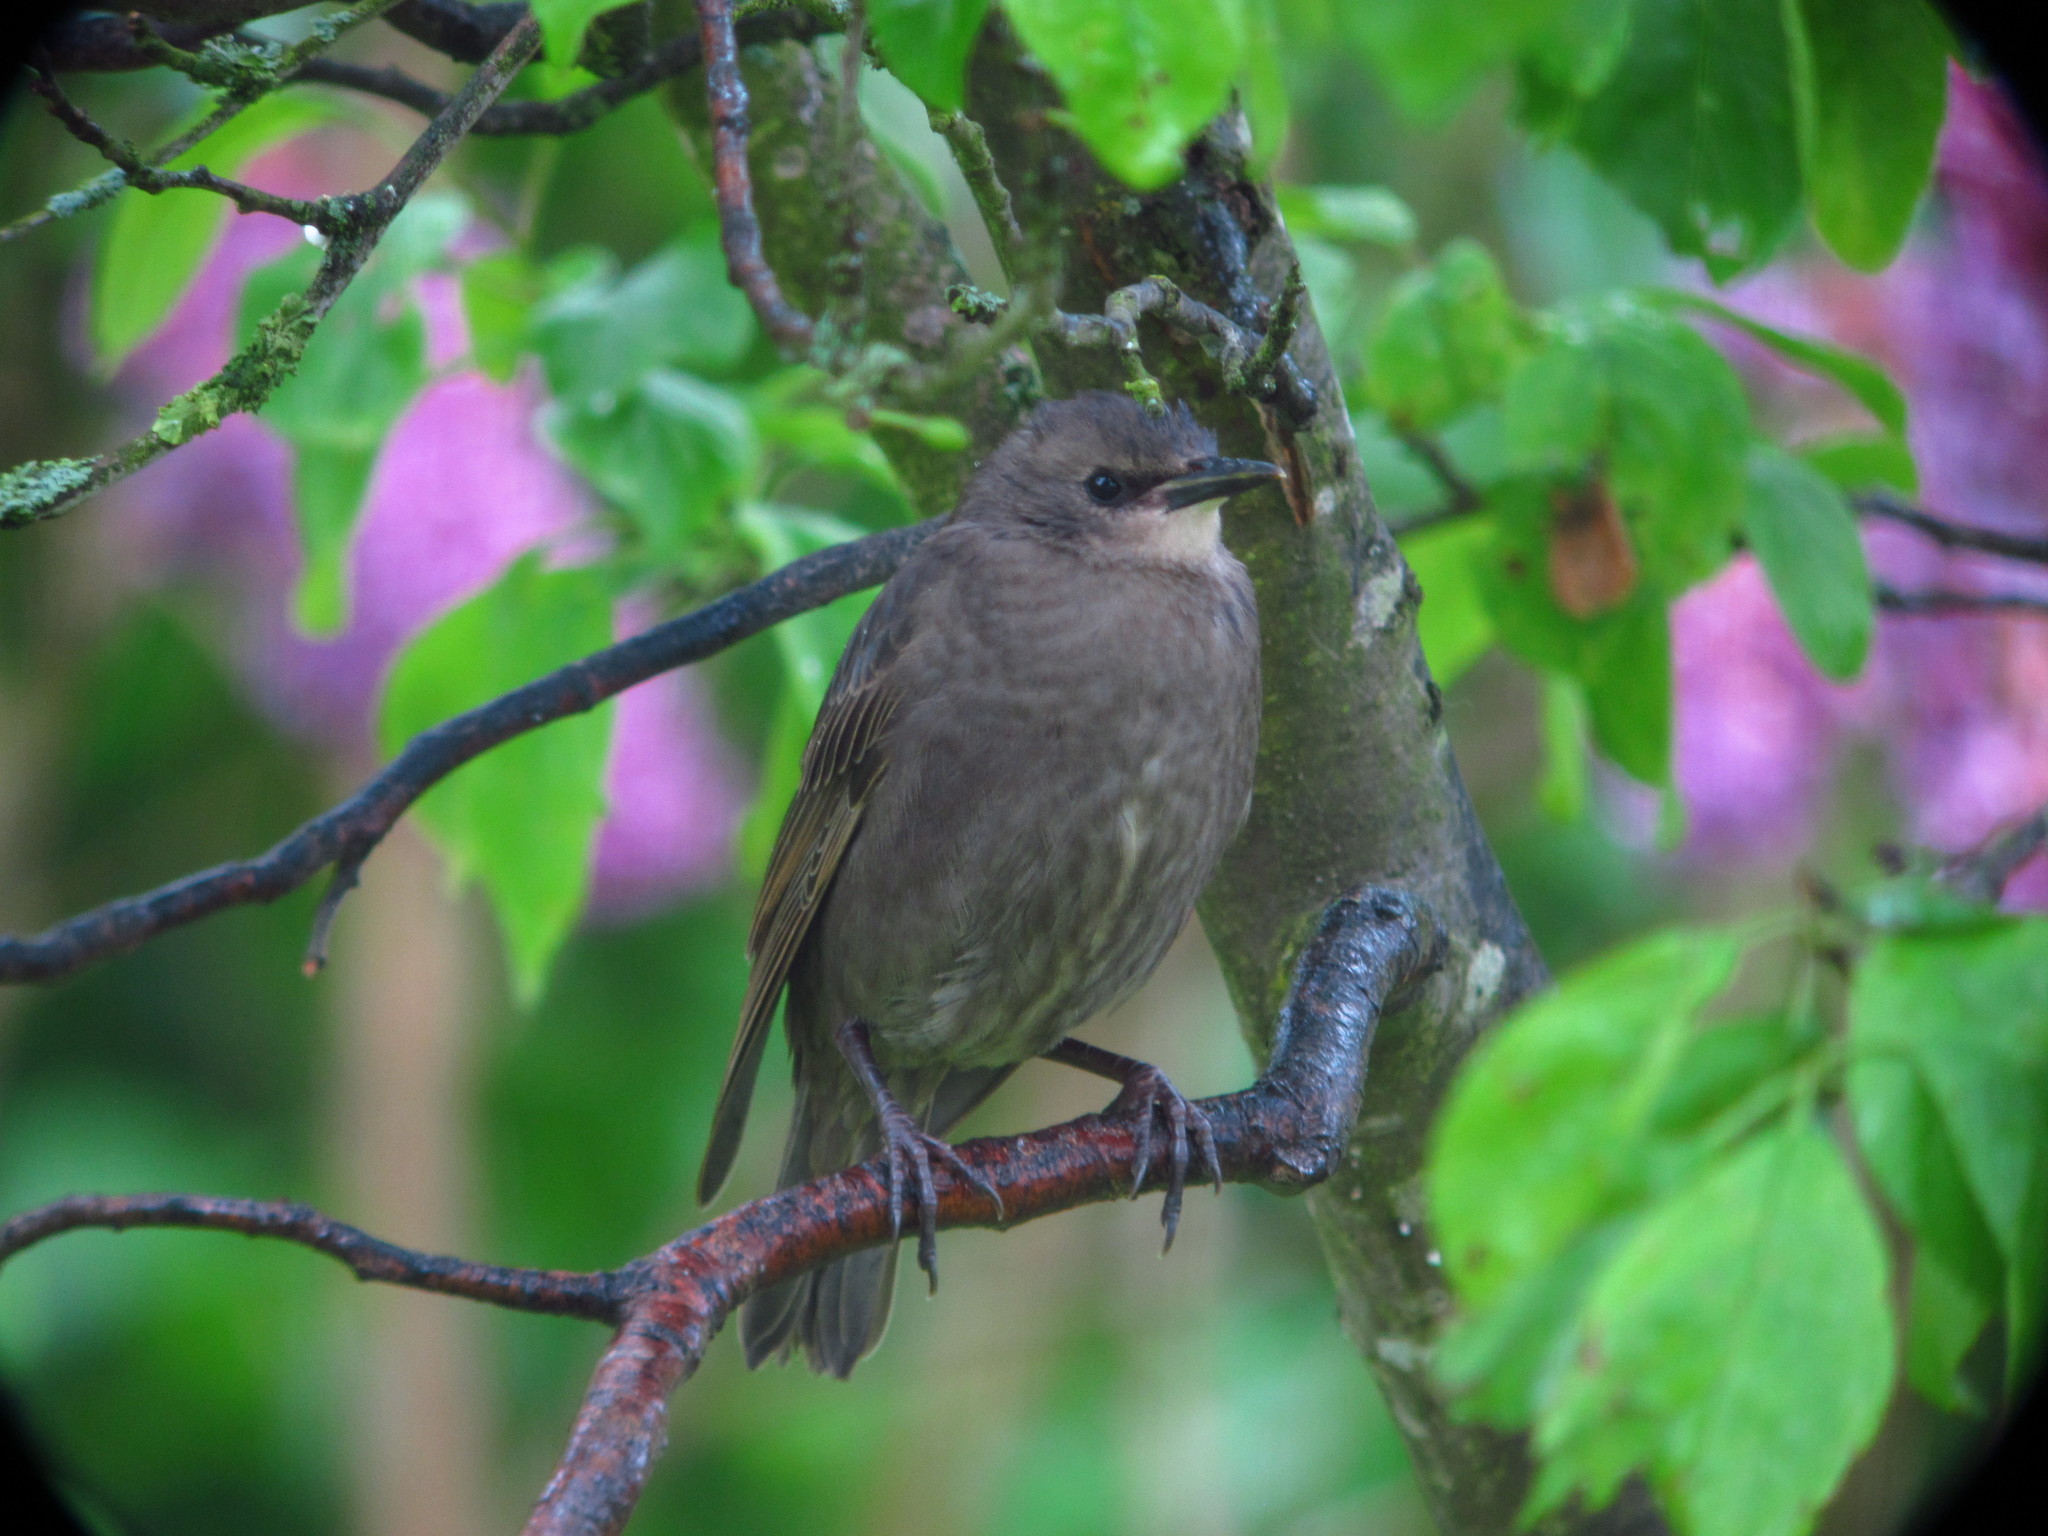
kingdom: Animalia
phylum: Chordata
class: Aves
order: Passeriformes
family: Sturnidae
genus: Sturnus
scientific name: Sturnus vulgaris
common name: Common starling
